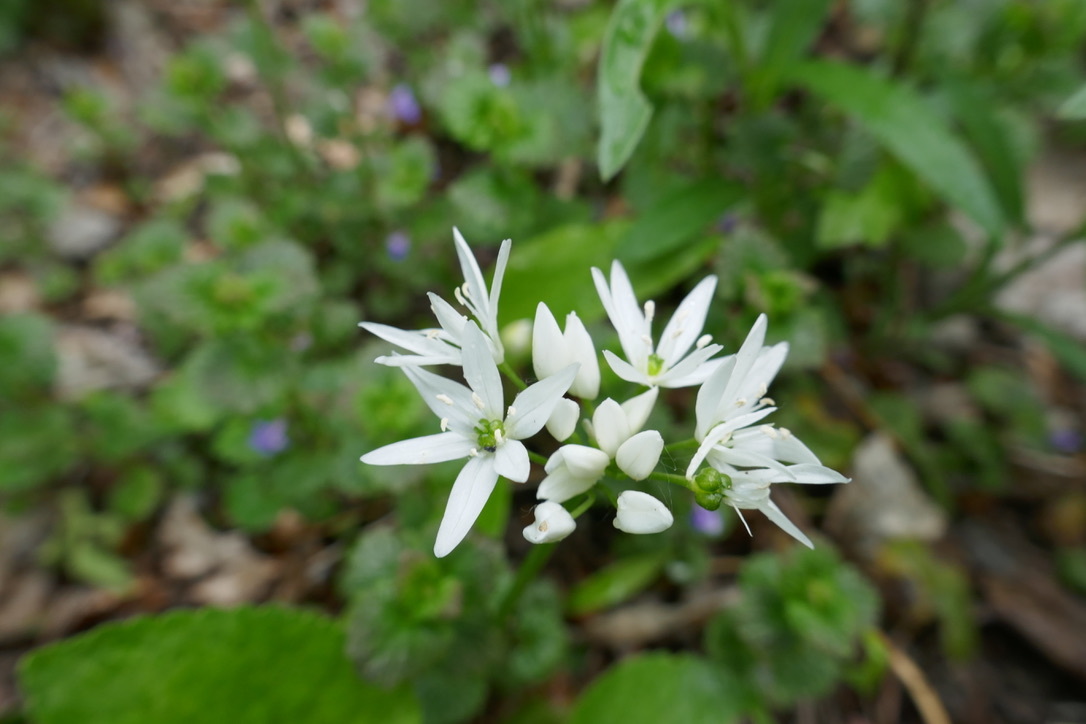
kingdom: Plantae
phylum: Tracheophyta
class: Liliopsida
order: Asparagales
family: Amaryllidaceae
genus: Allium
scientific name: Allium ursinum
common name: Ramsons
